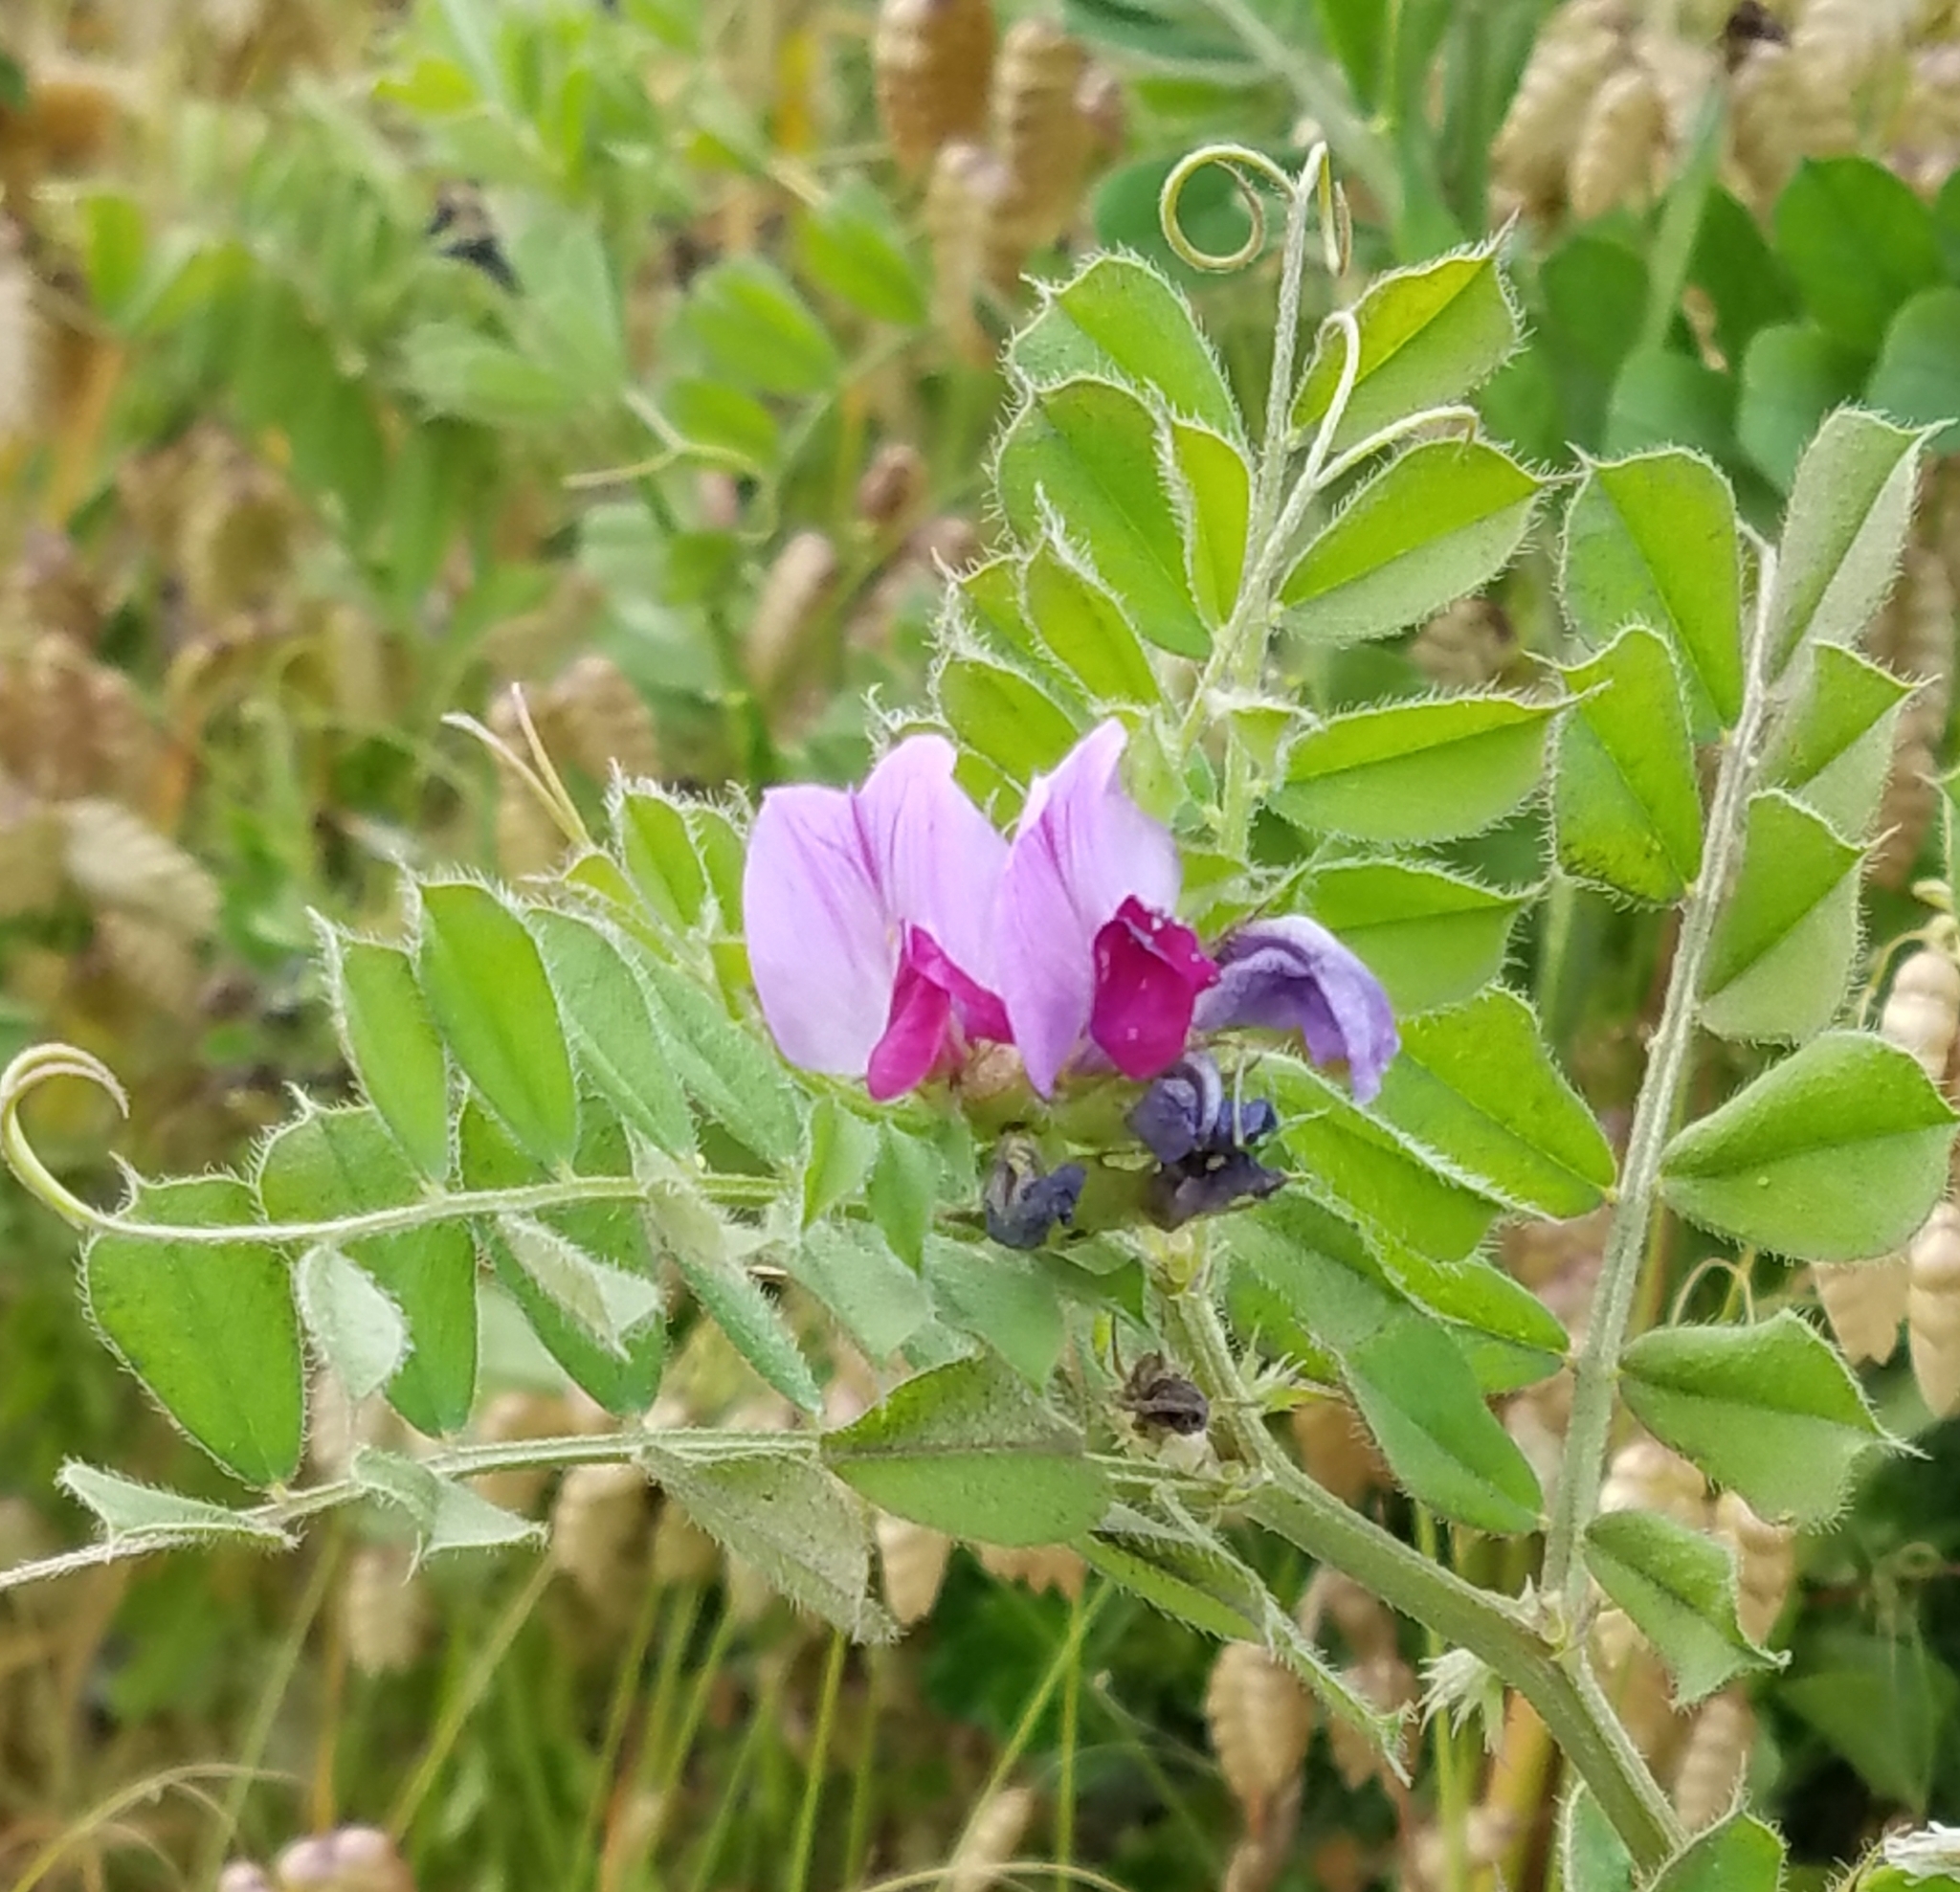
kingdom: Plantae
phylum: Tracheophyta
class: Magnoliopsida
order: Fabales
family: Fabaceae
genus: Vicia
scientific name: Vicia sativa
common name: Garden vetch
